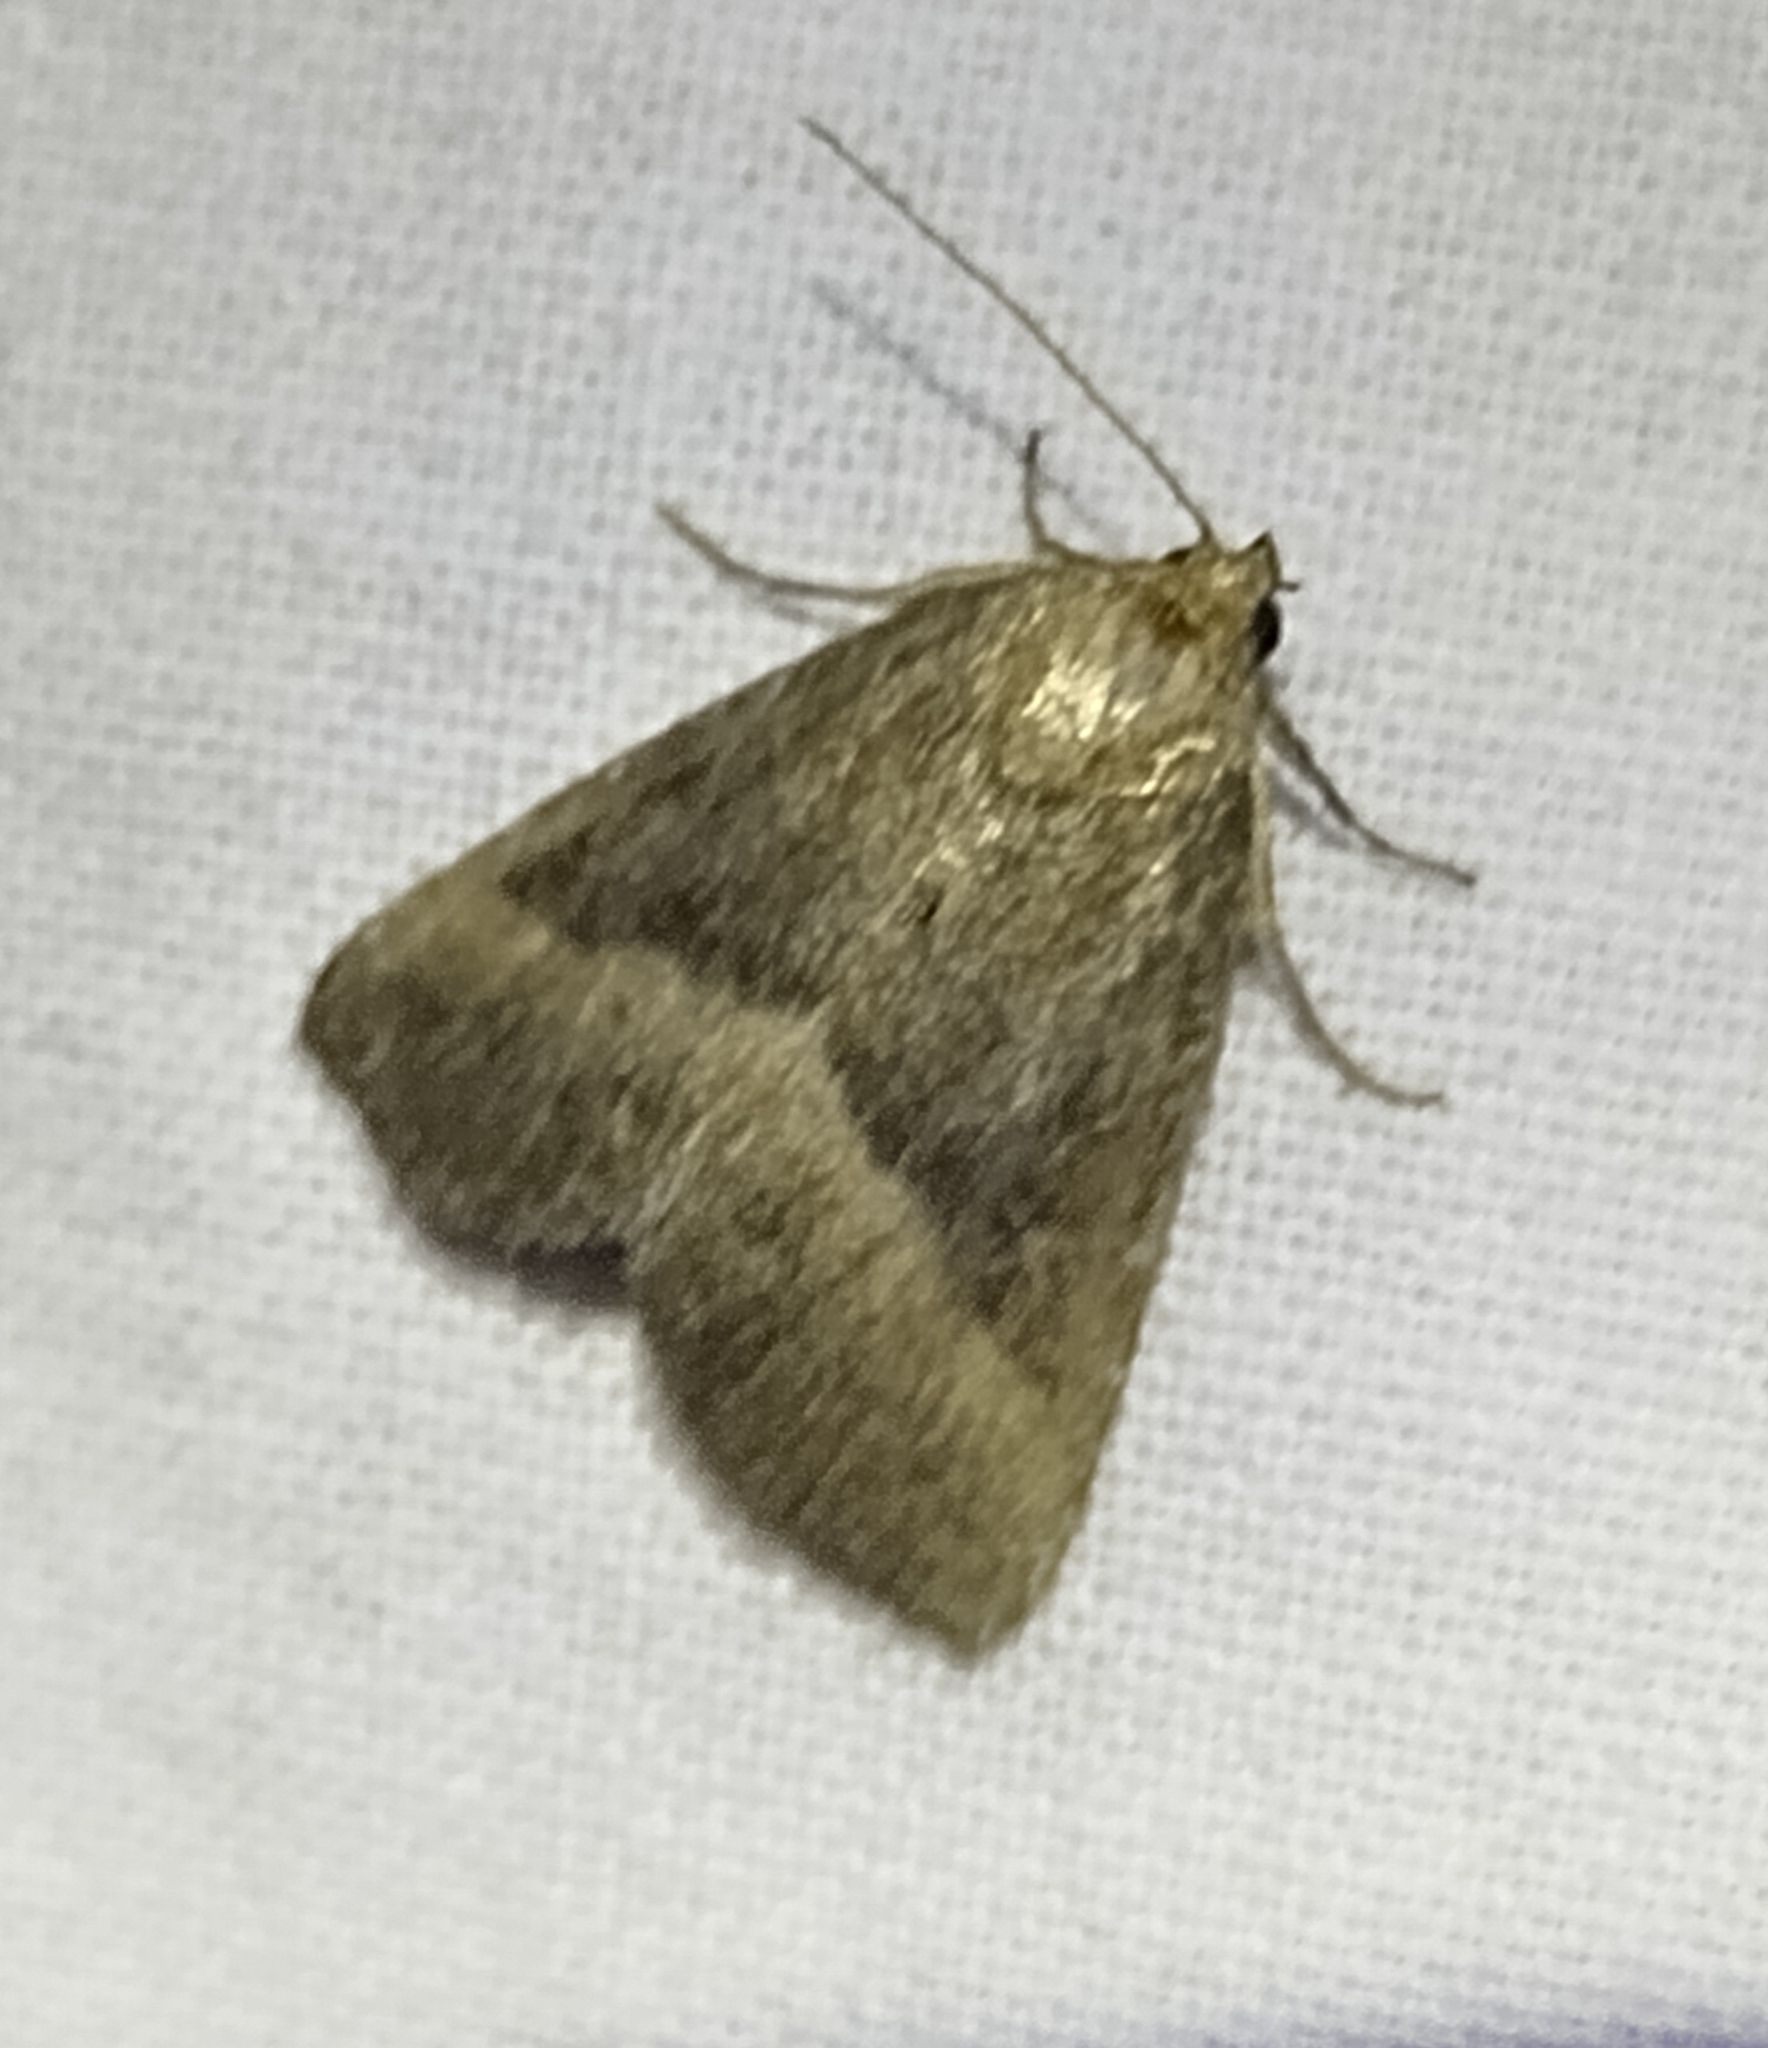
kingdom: Animalia
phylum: Arthropoda
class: Insecta
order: Lepidoptera
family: Noctuidae
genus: Ogdoconta
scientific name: Ogdoconta cinereola
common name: Common pinkband
